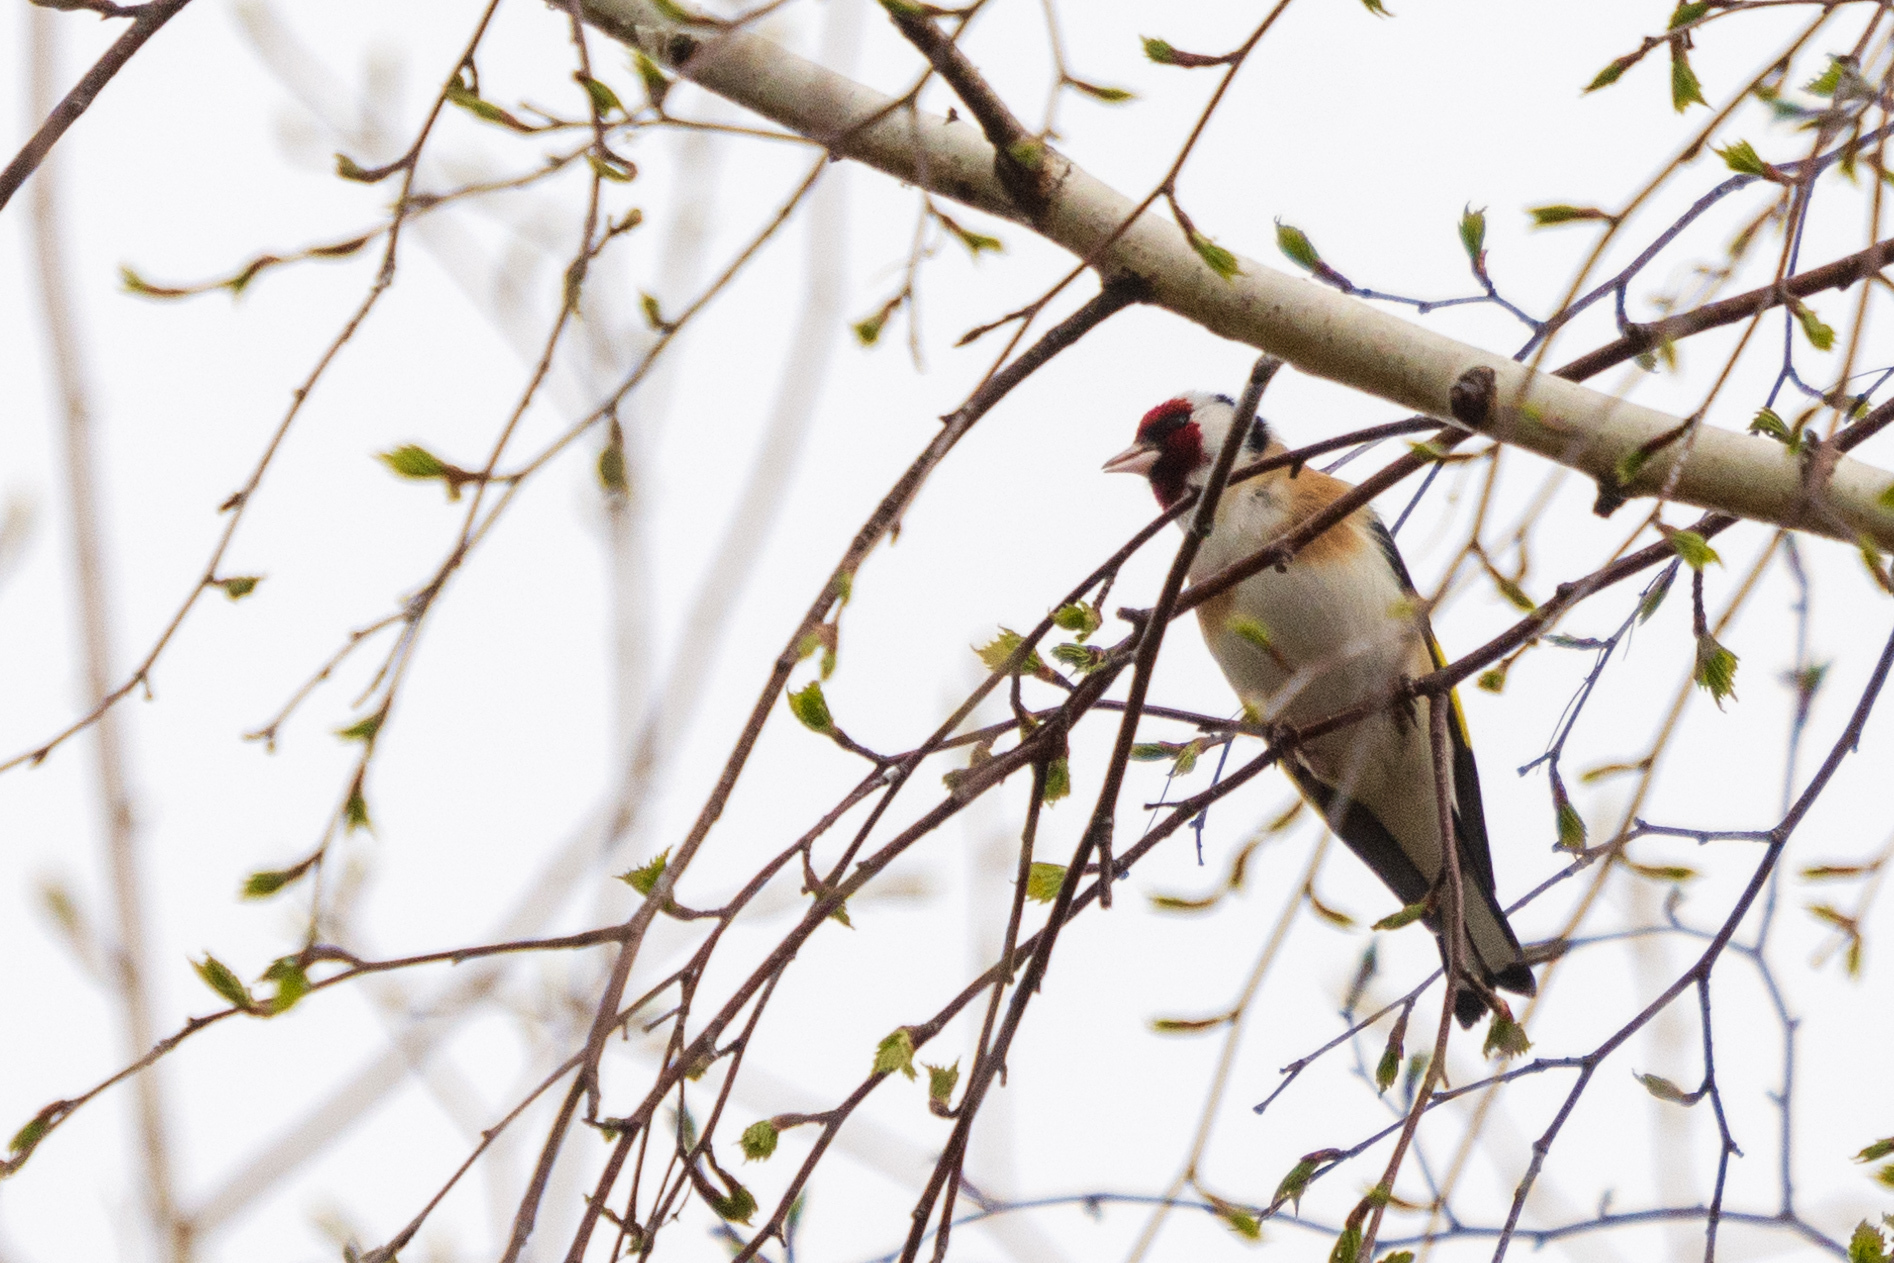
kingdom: Animalia
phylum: Chordata
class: Aves
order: Passeriformes
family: Fringillidae
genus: Carduelis
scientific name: Carduelis carduelis
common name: European goldfinch
